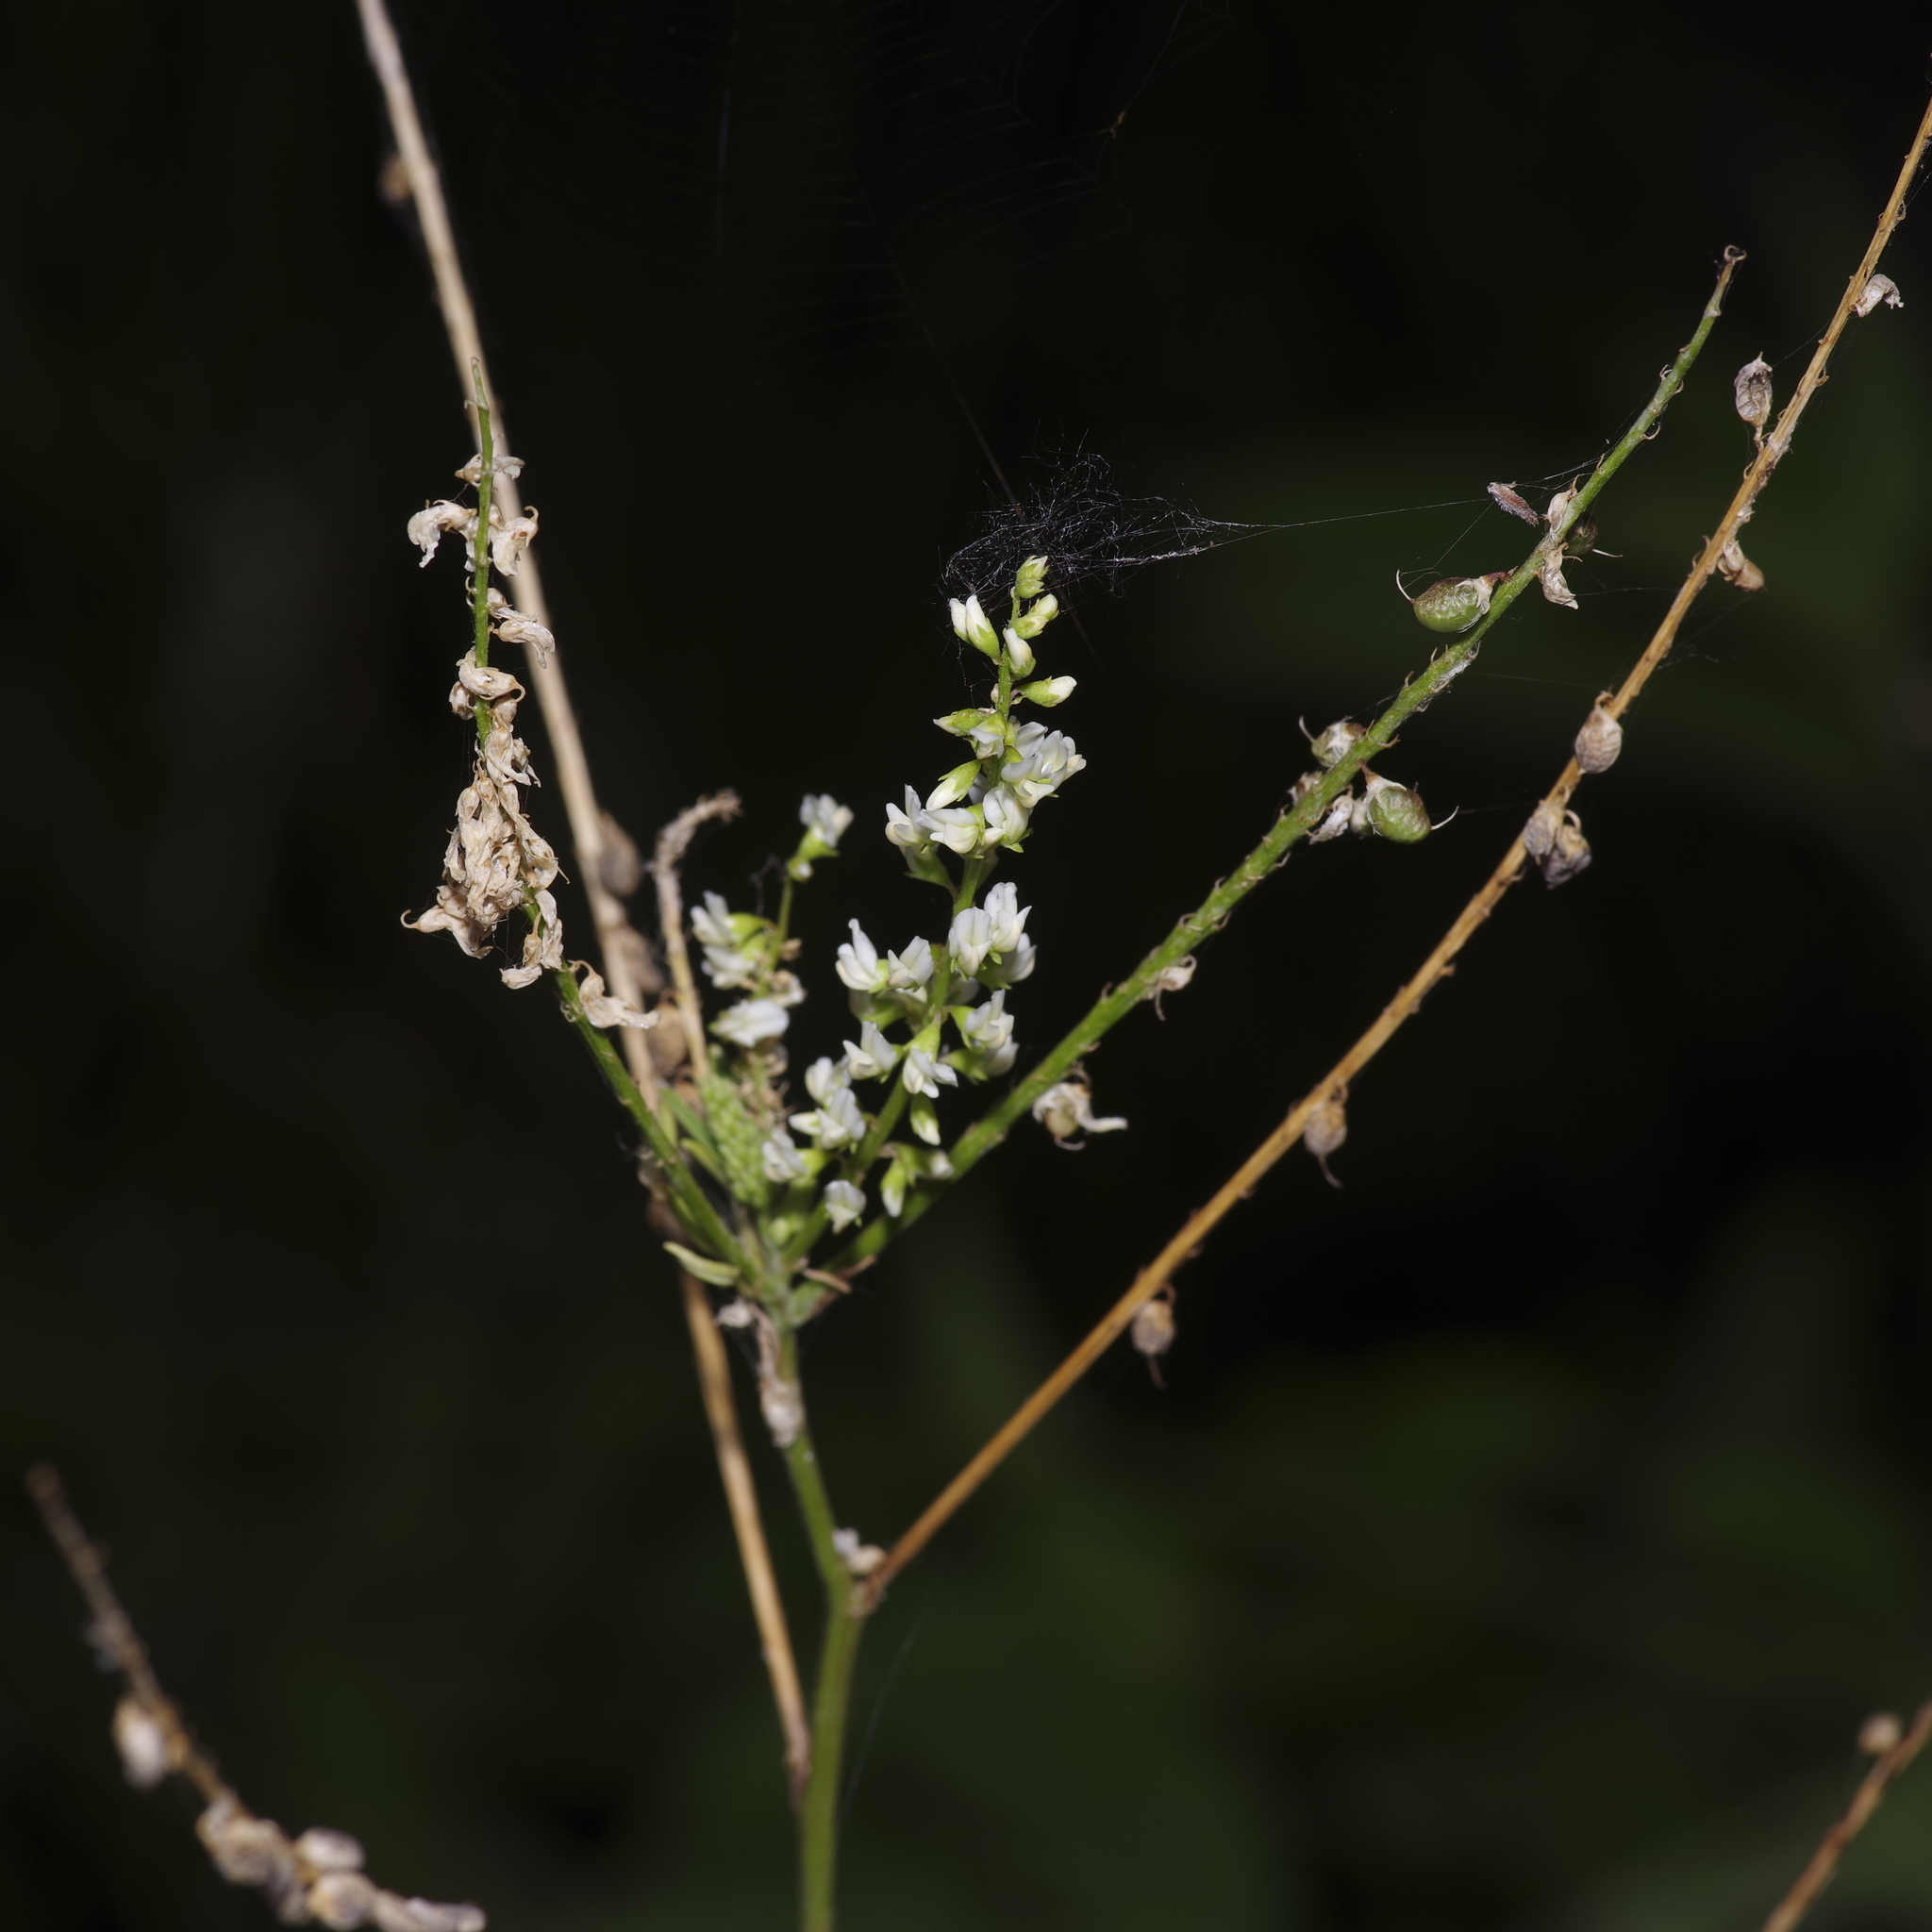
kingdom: Plantae
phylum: Tracheophyta
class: Magnoliopsida
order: Fabales
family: Fabaceae
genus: Melilotus
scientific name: Melilotus albus
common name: White melilot
